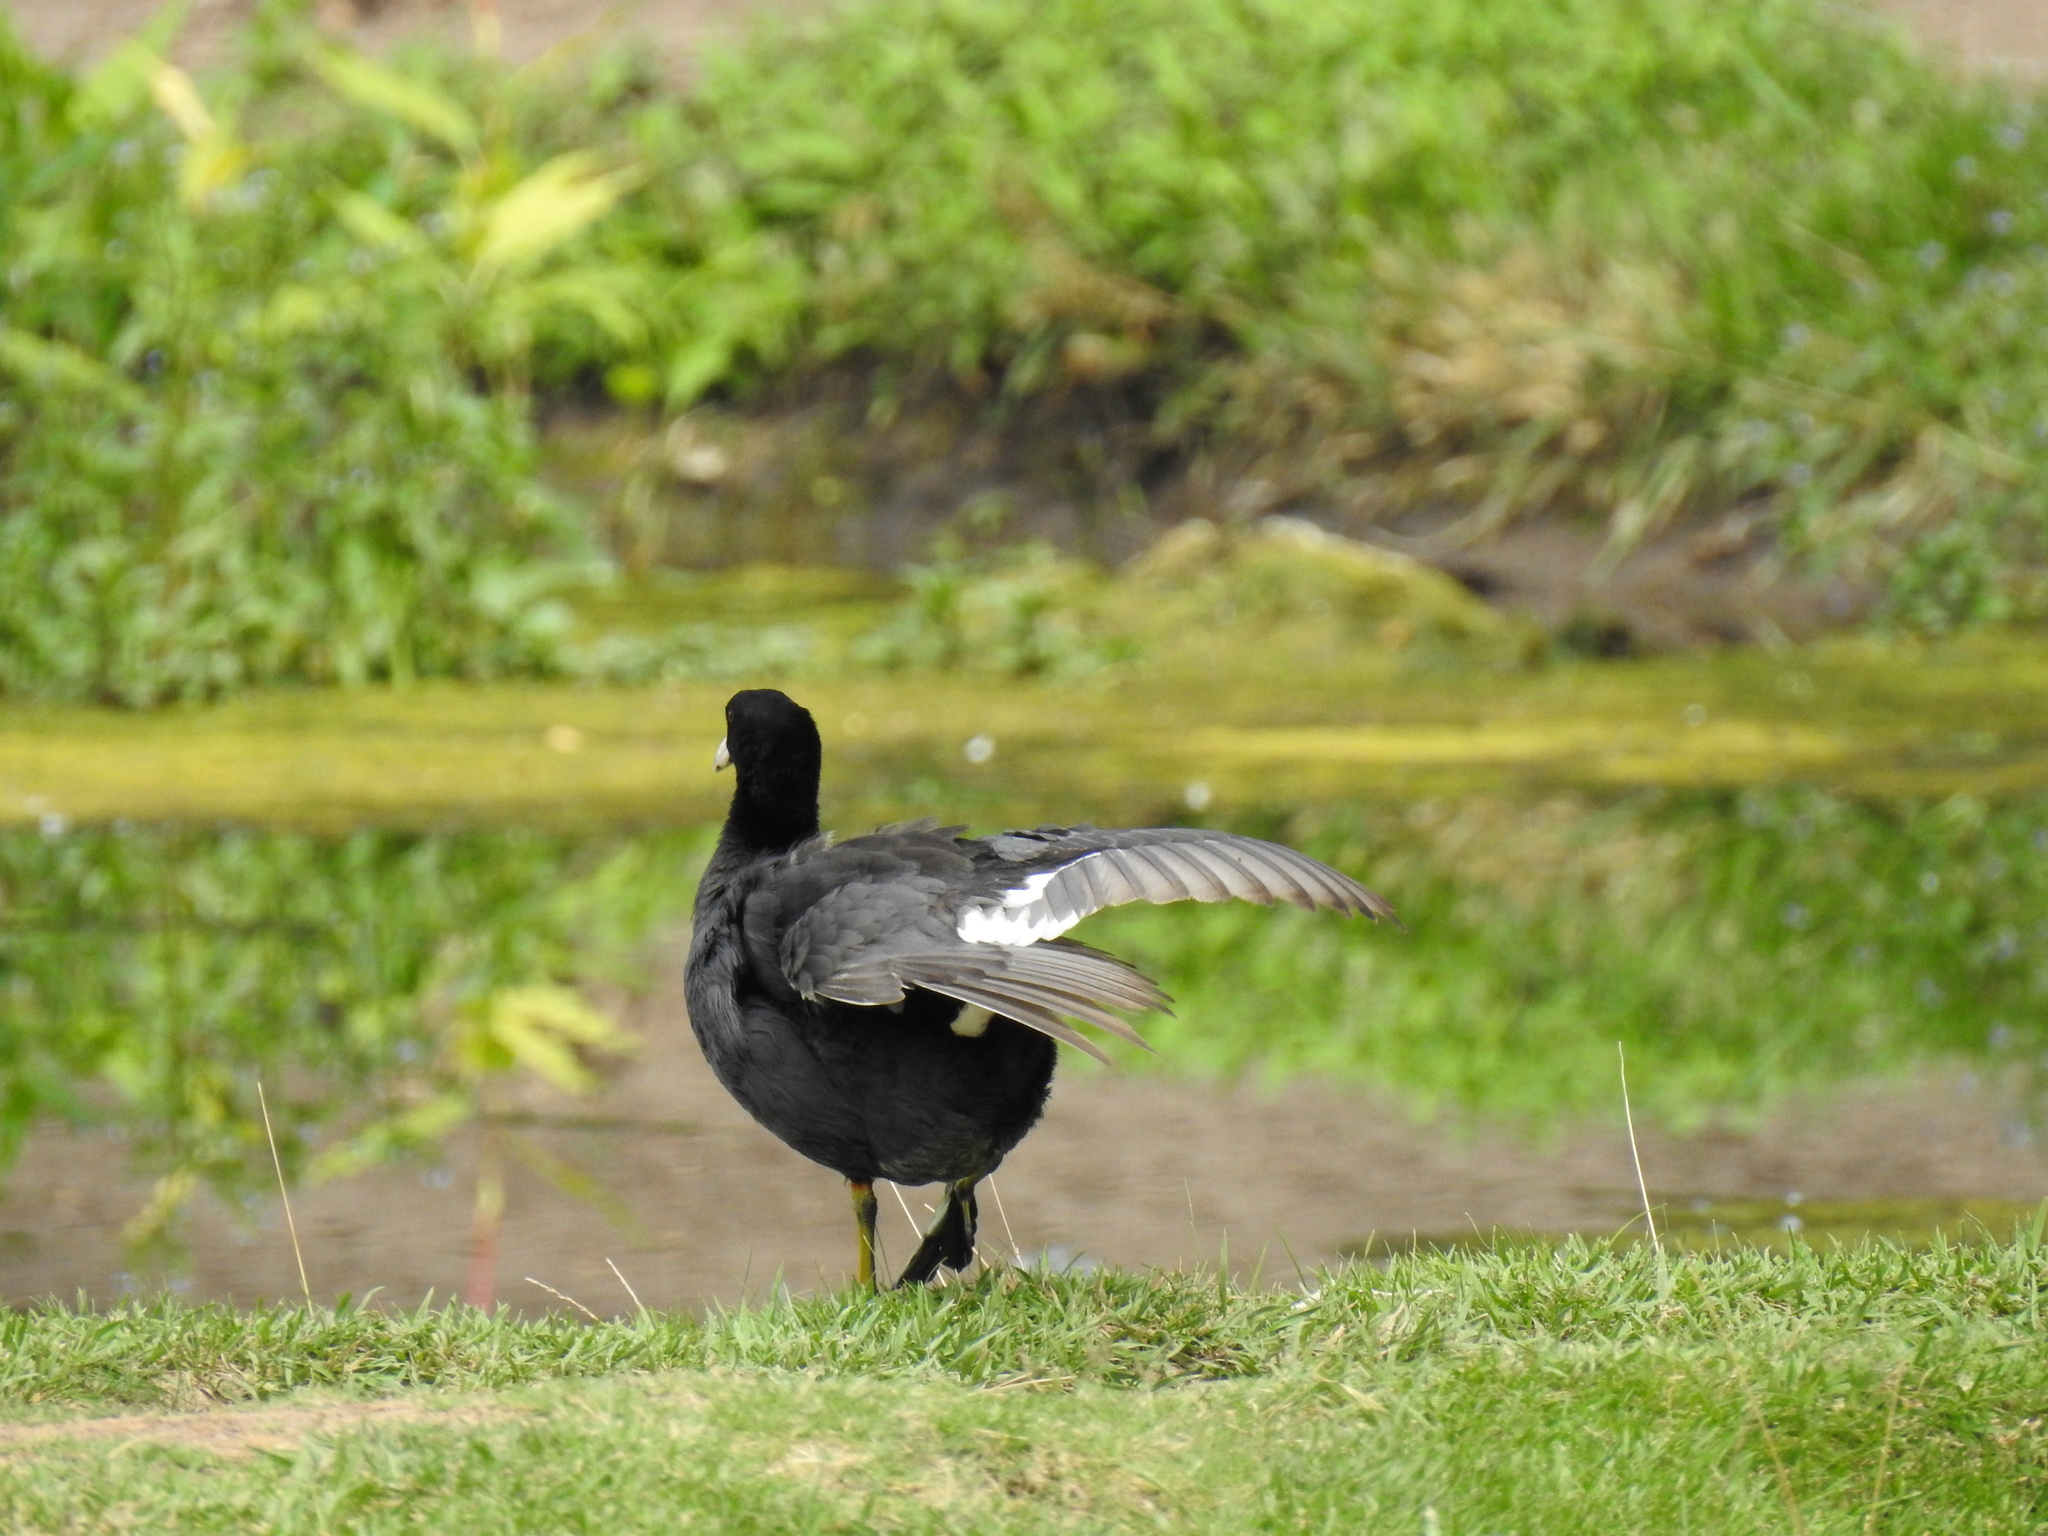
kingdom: Animalia
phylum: Chordata
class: Aves
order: Gruiformes
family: Rallidae
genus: Fulica
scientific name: Fulica americana
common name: American coot
